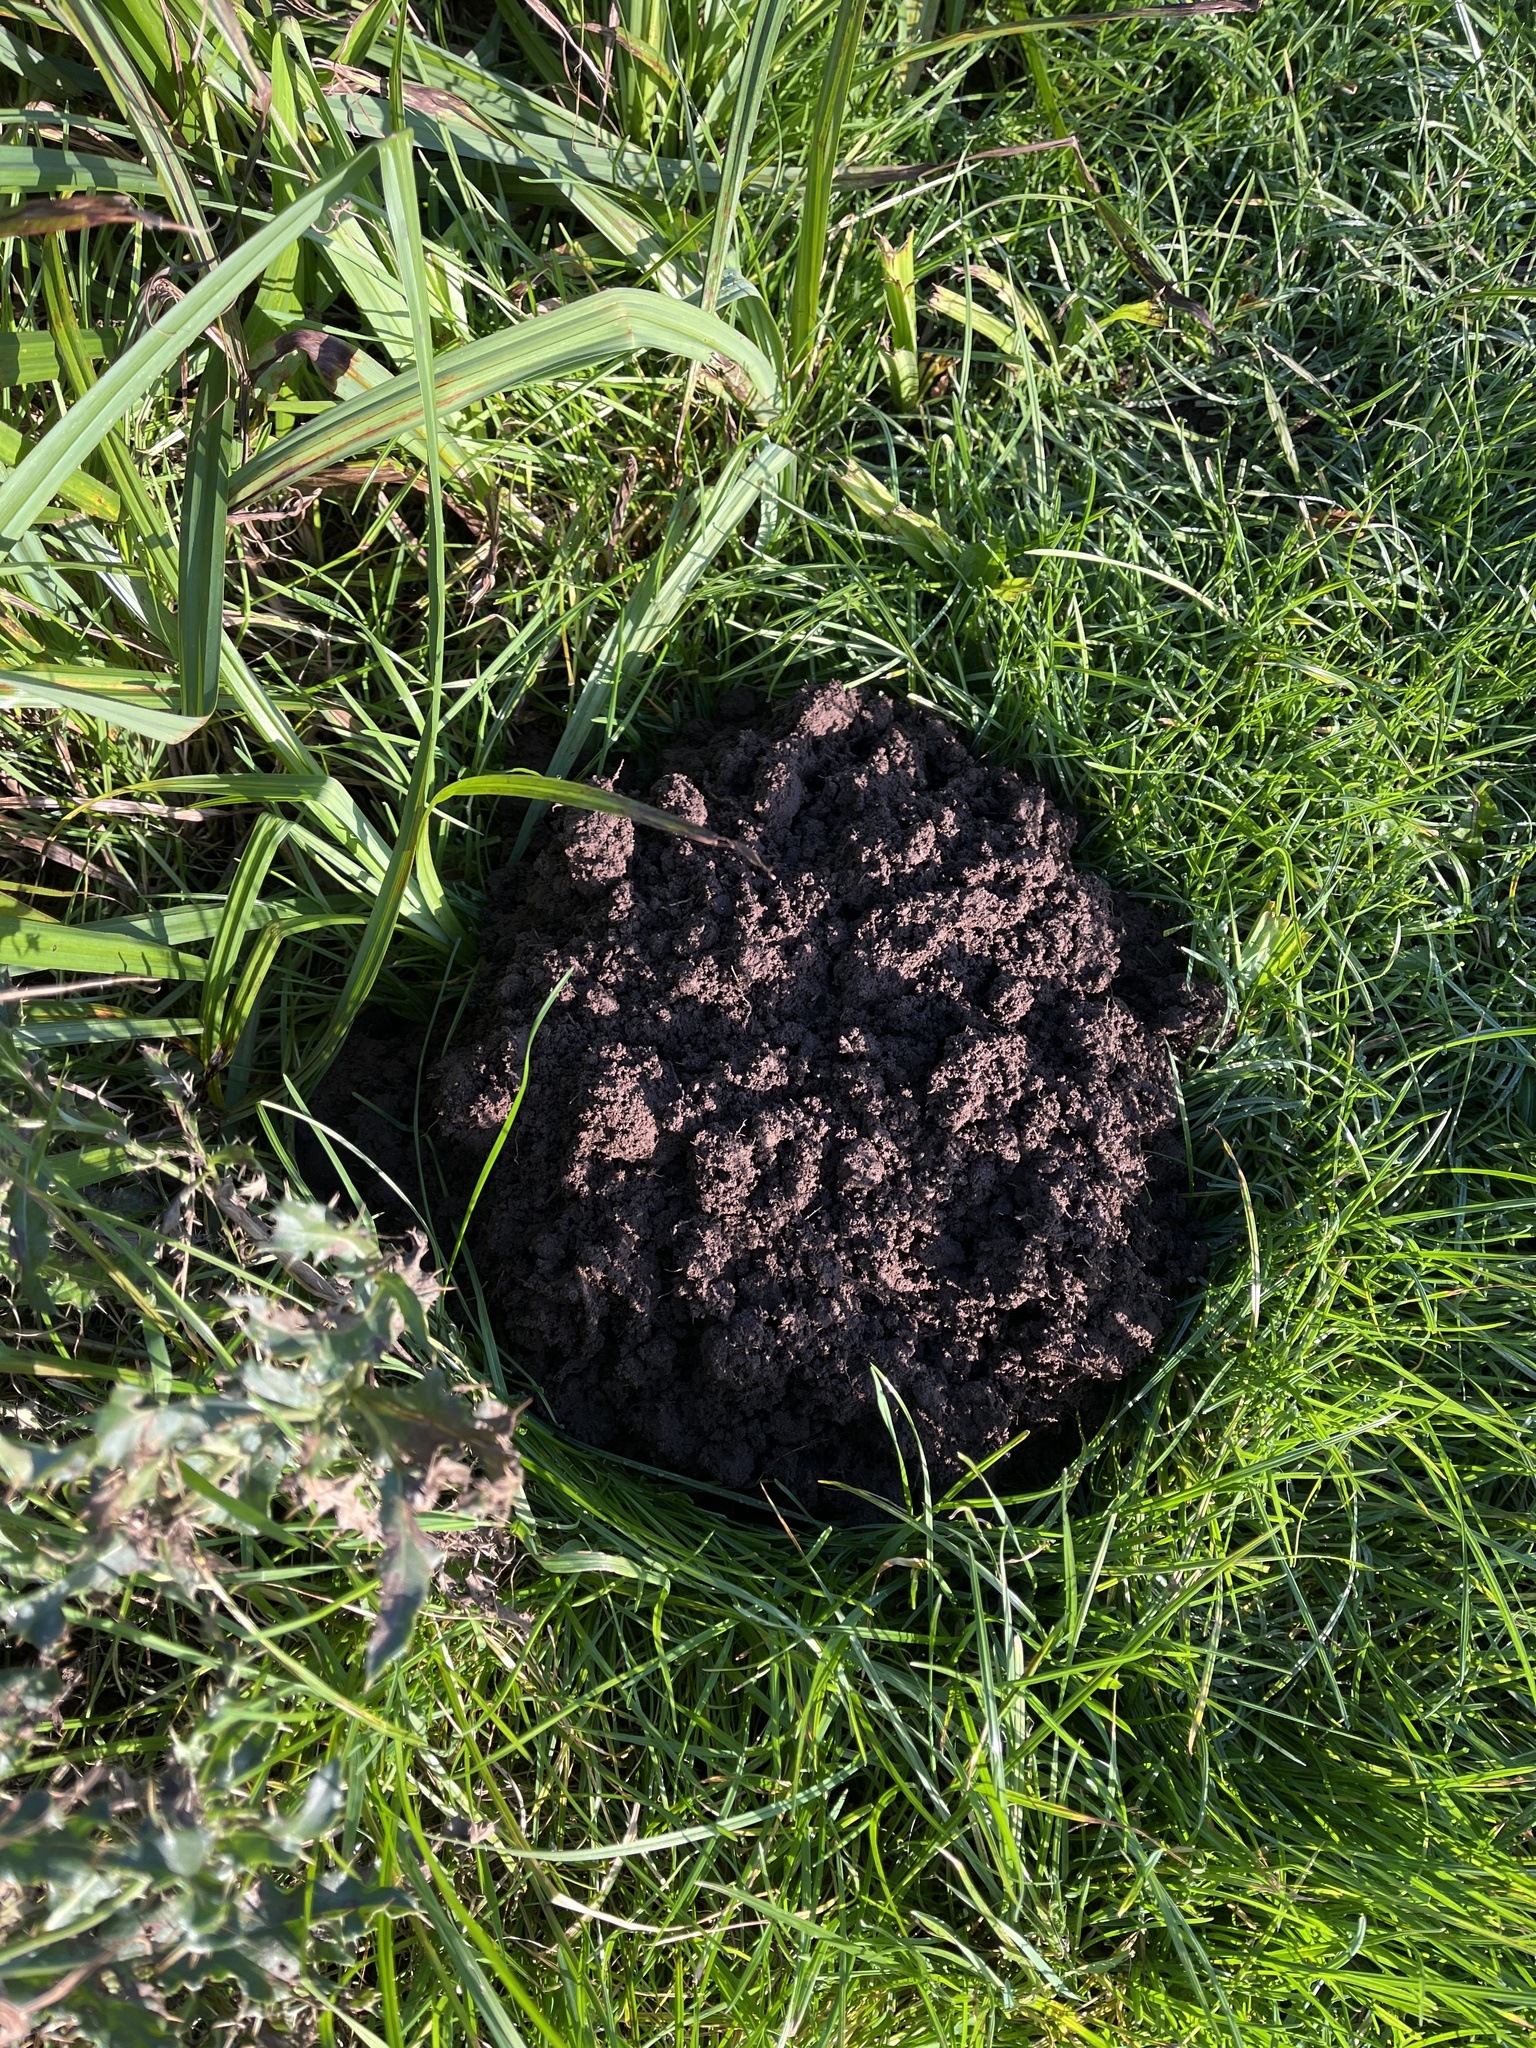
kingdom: Animalia
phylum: Chordata
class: Mammalia
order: Soricomorpha
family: Talpidae
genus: Talpa
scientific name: Talpa europaea
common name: European mole
